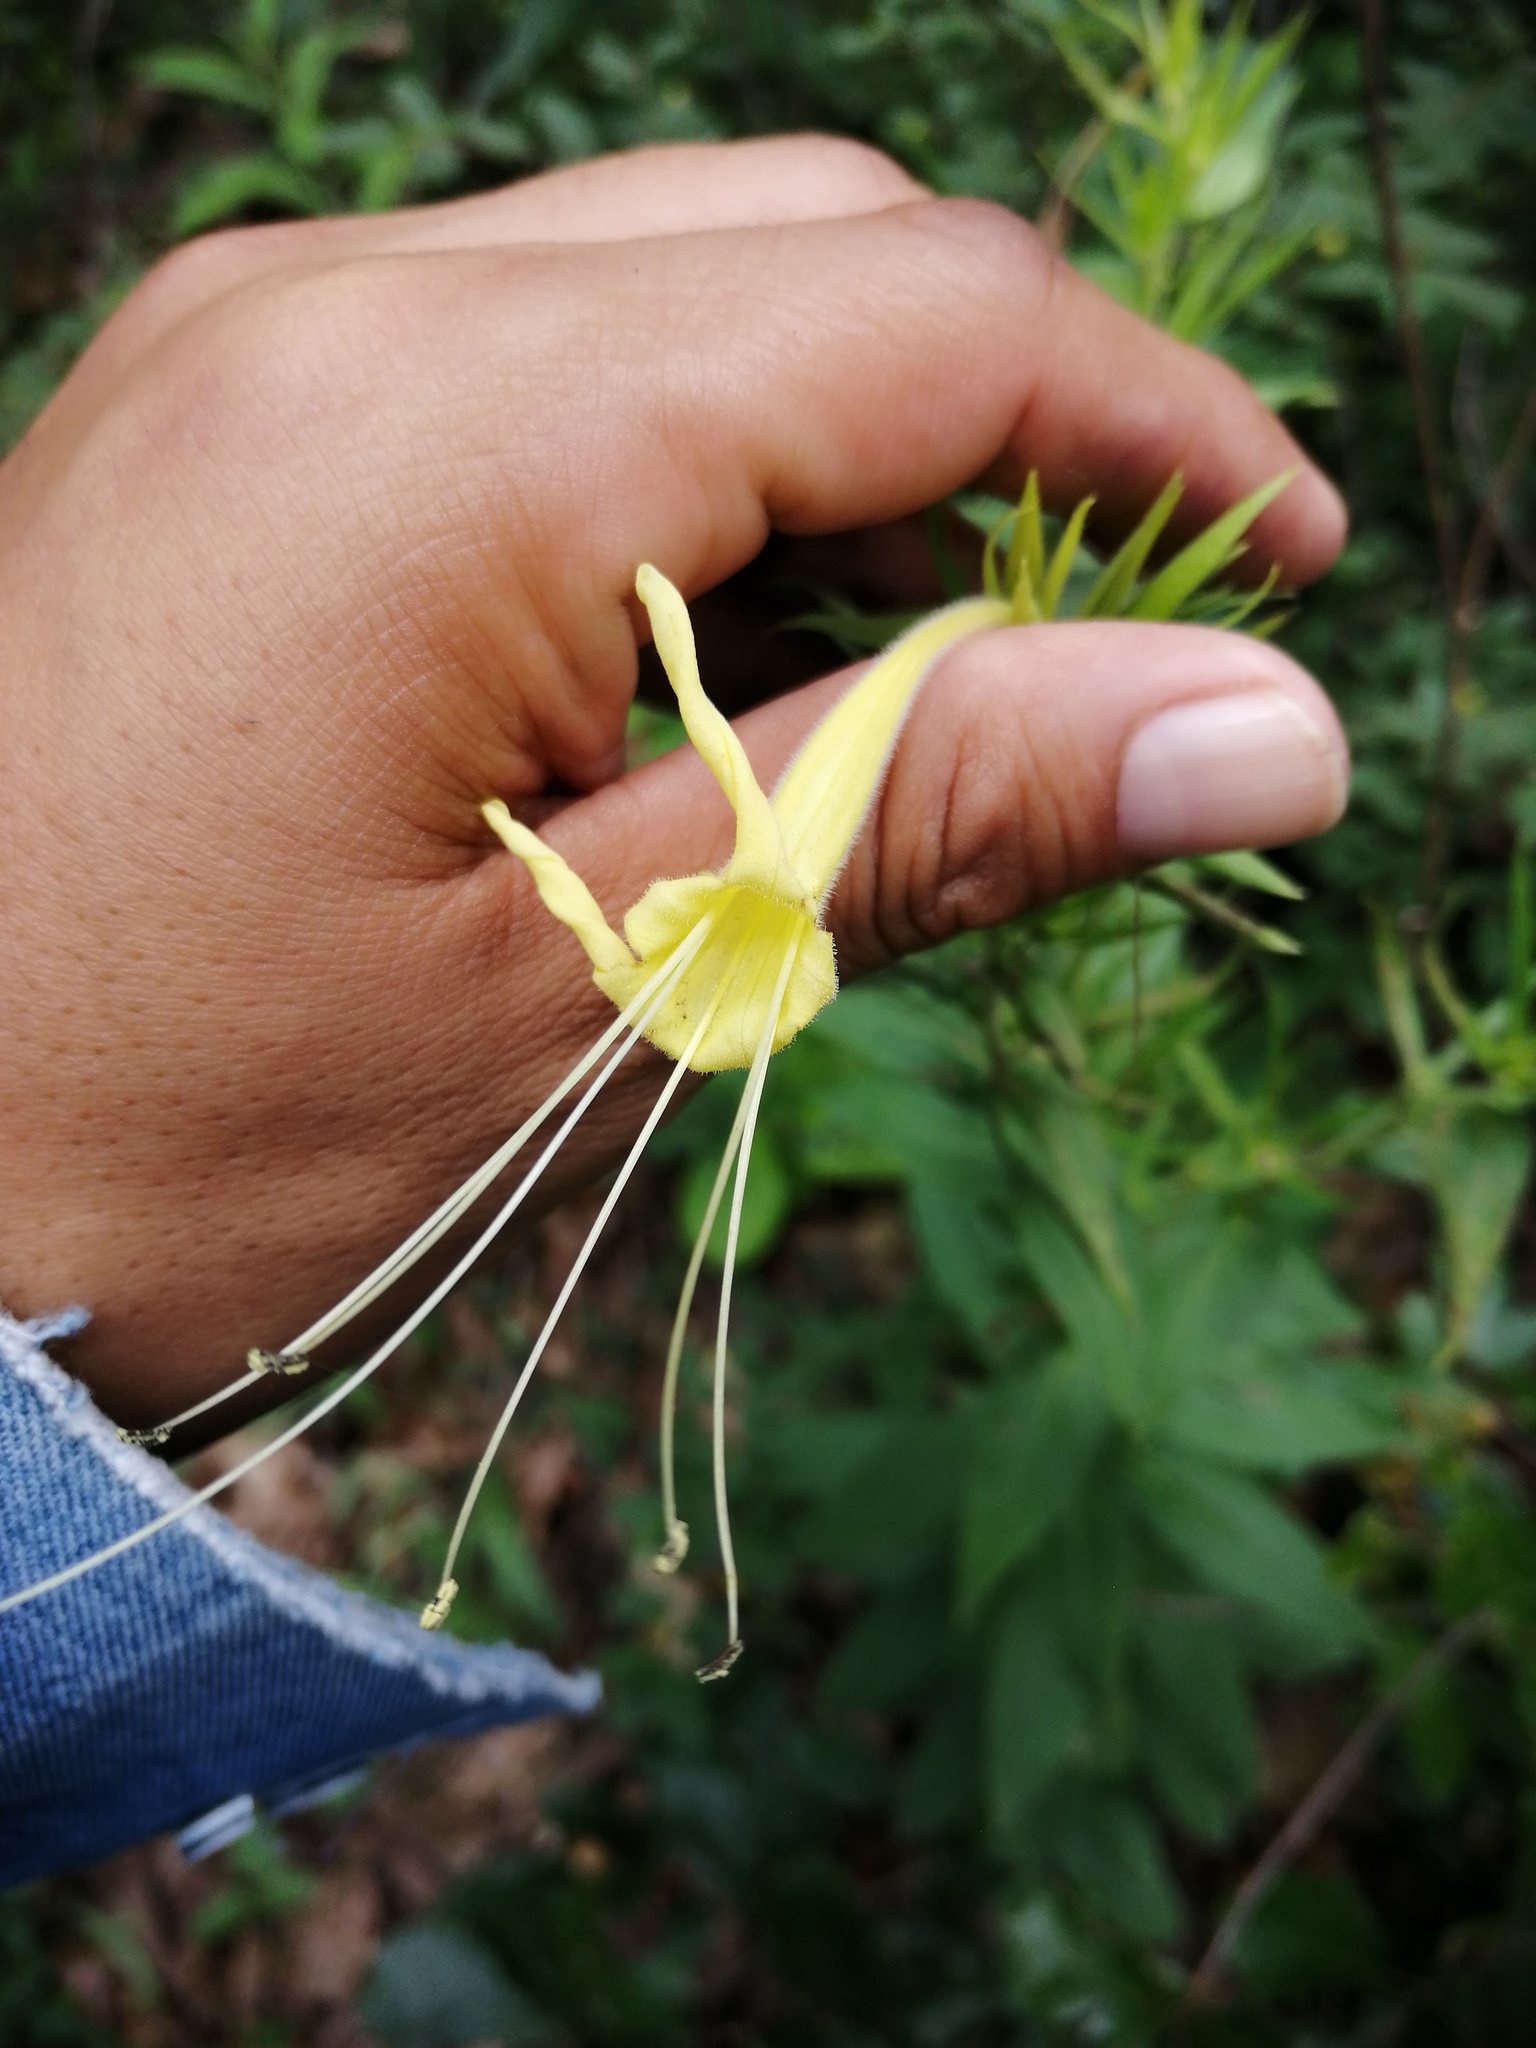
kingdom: Plantae
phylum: Tracheophyta
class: Magnoliopsida
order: Boraginales
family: Boraginaceae
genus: Lithospermum
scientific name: Lithospermum exsertum
